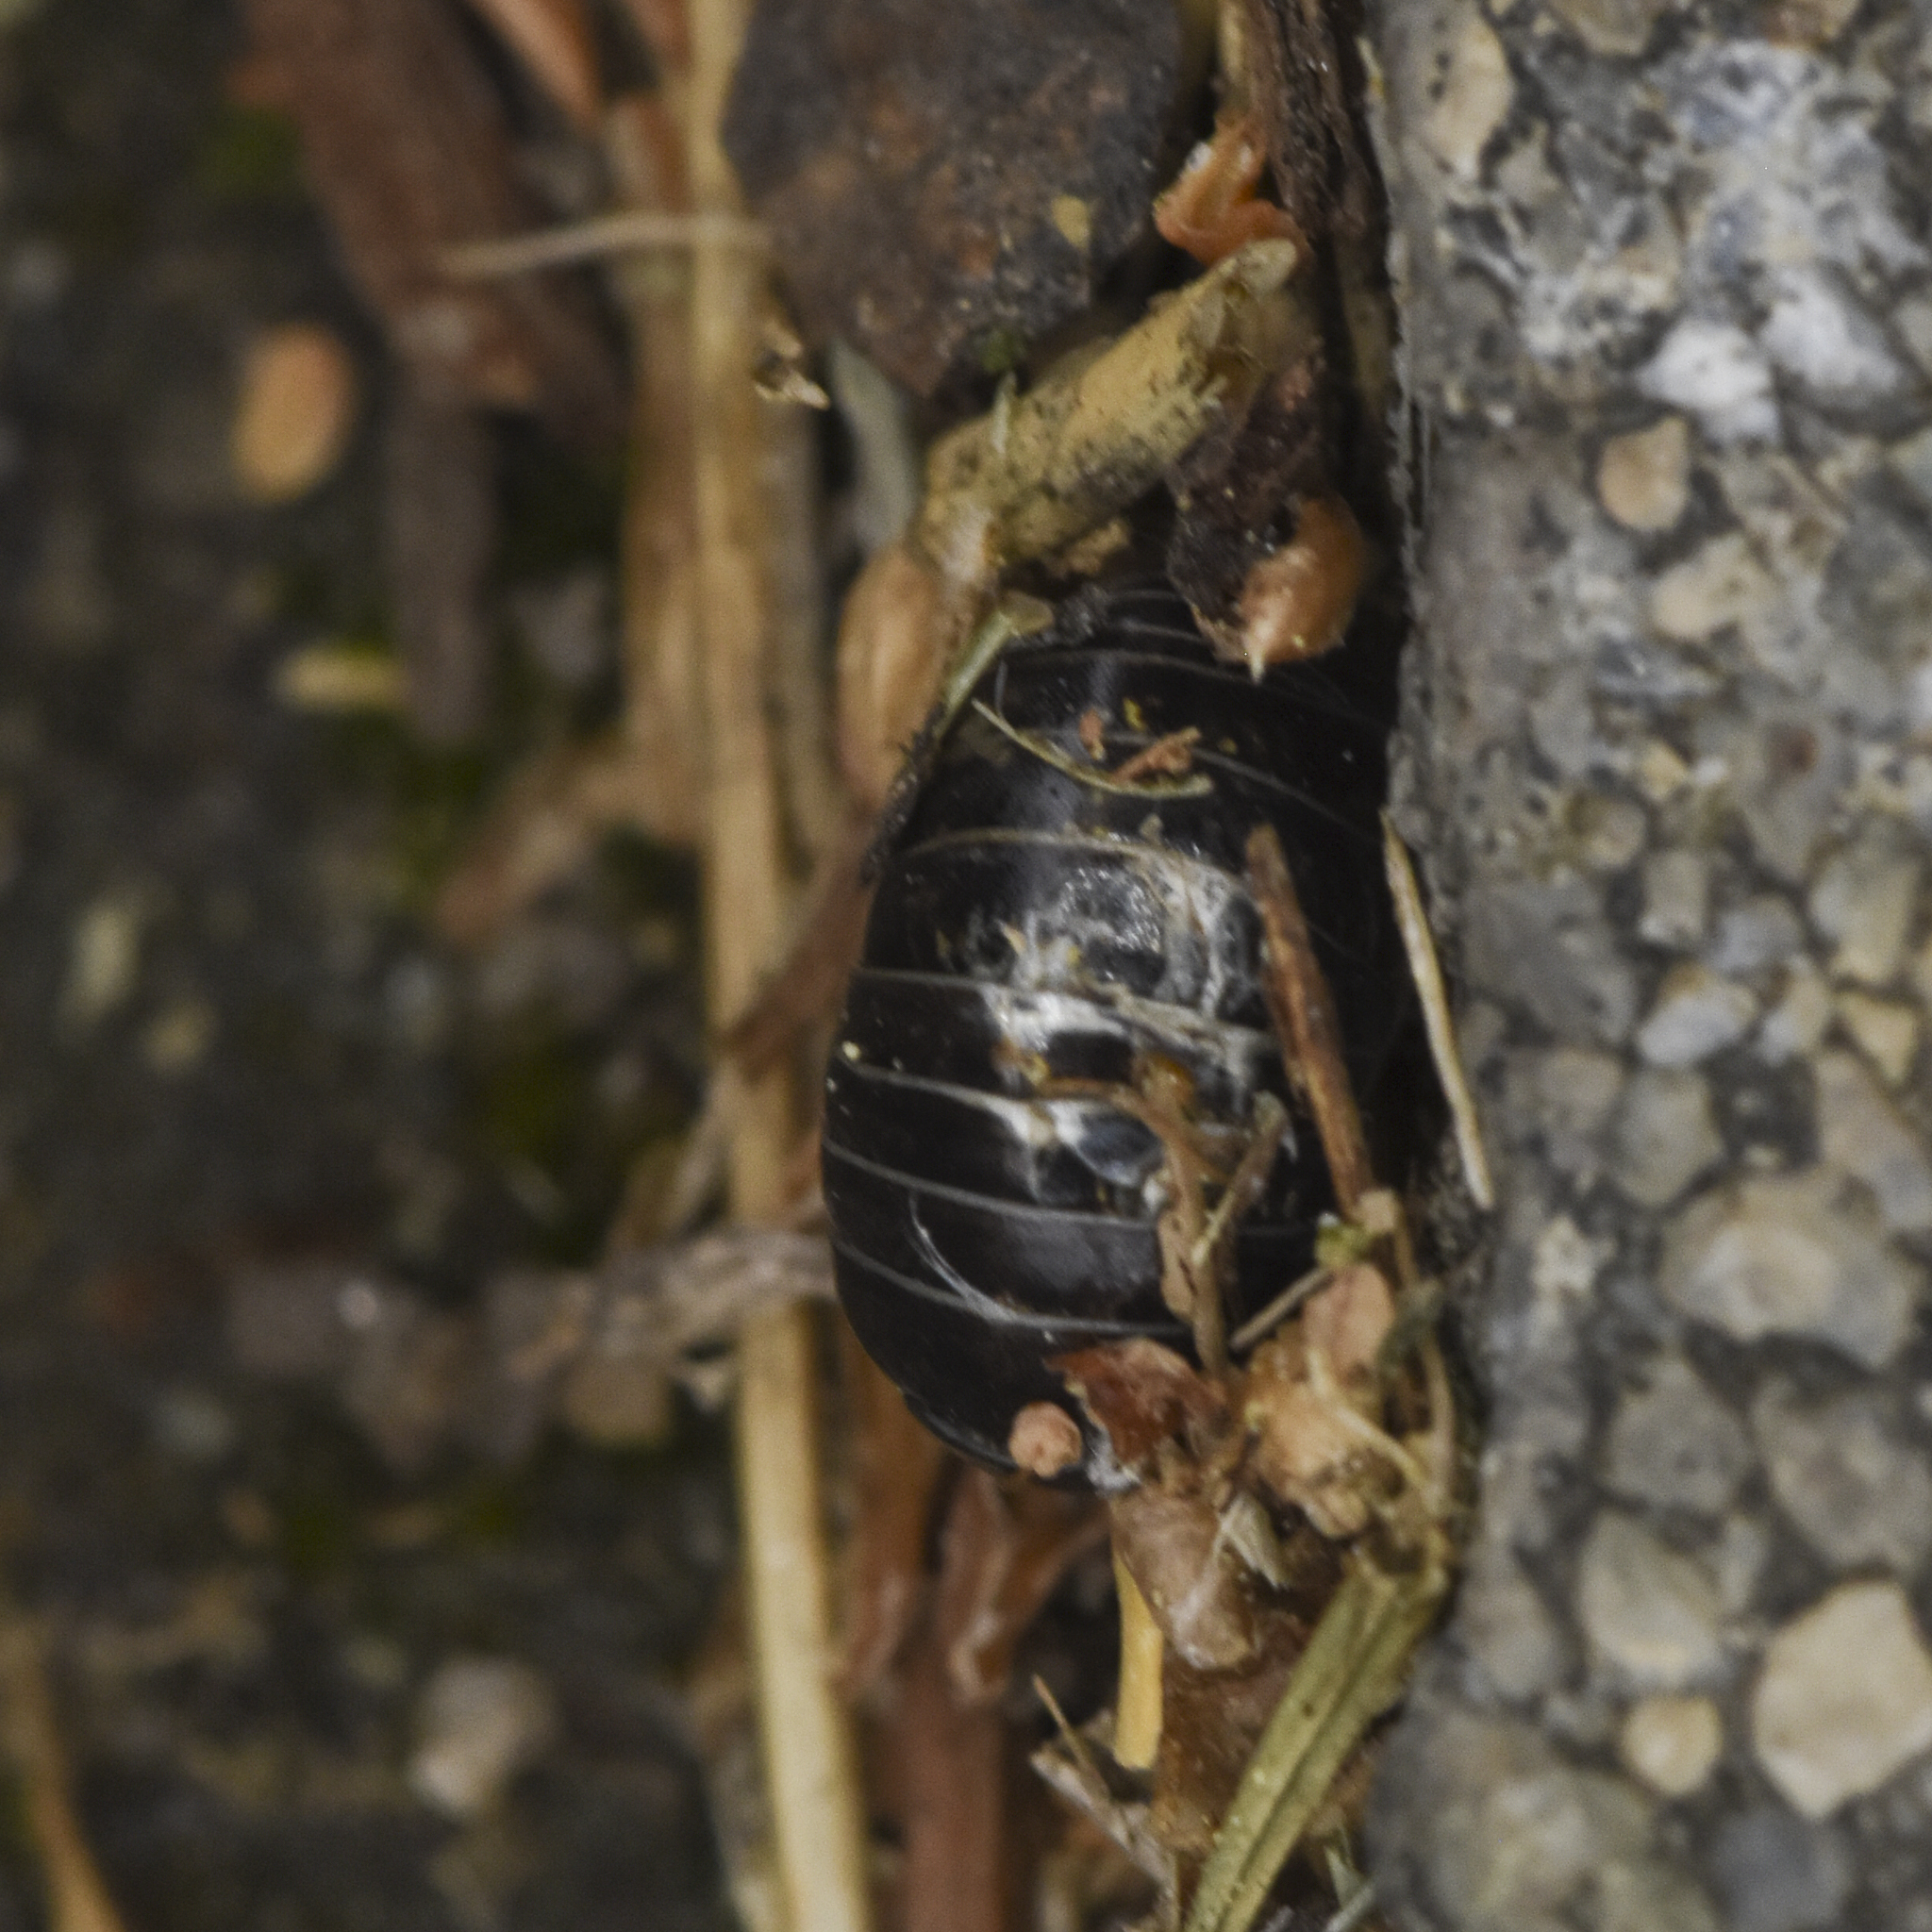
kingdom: Animalia
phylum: Arthropoda
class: Malacostraca
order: Isopoda
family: Armadillidiidae
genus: Armadillidium
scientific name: Armadillidium vulgare
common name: Common pill woodlouse
